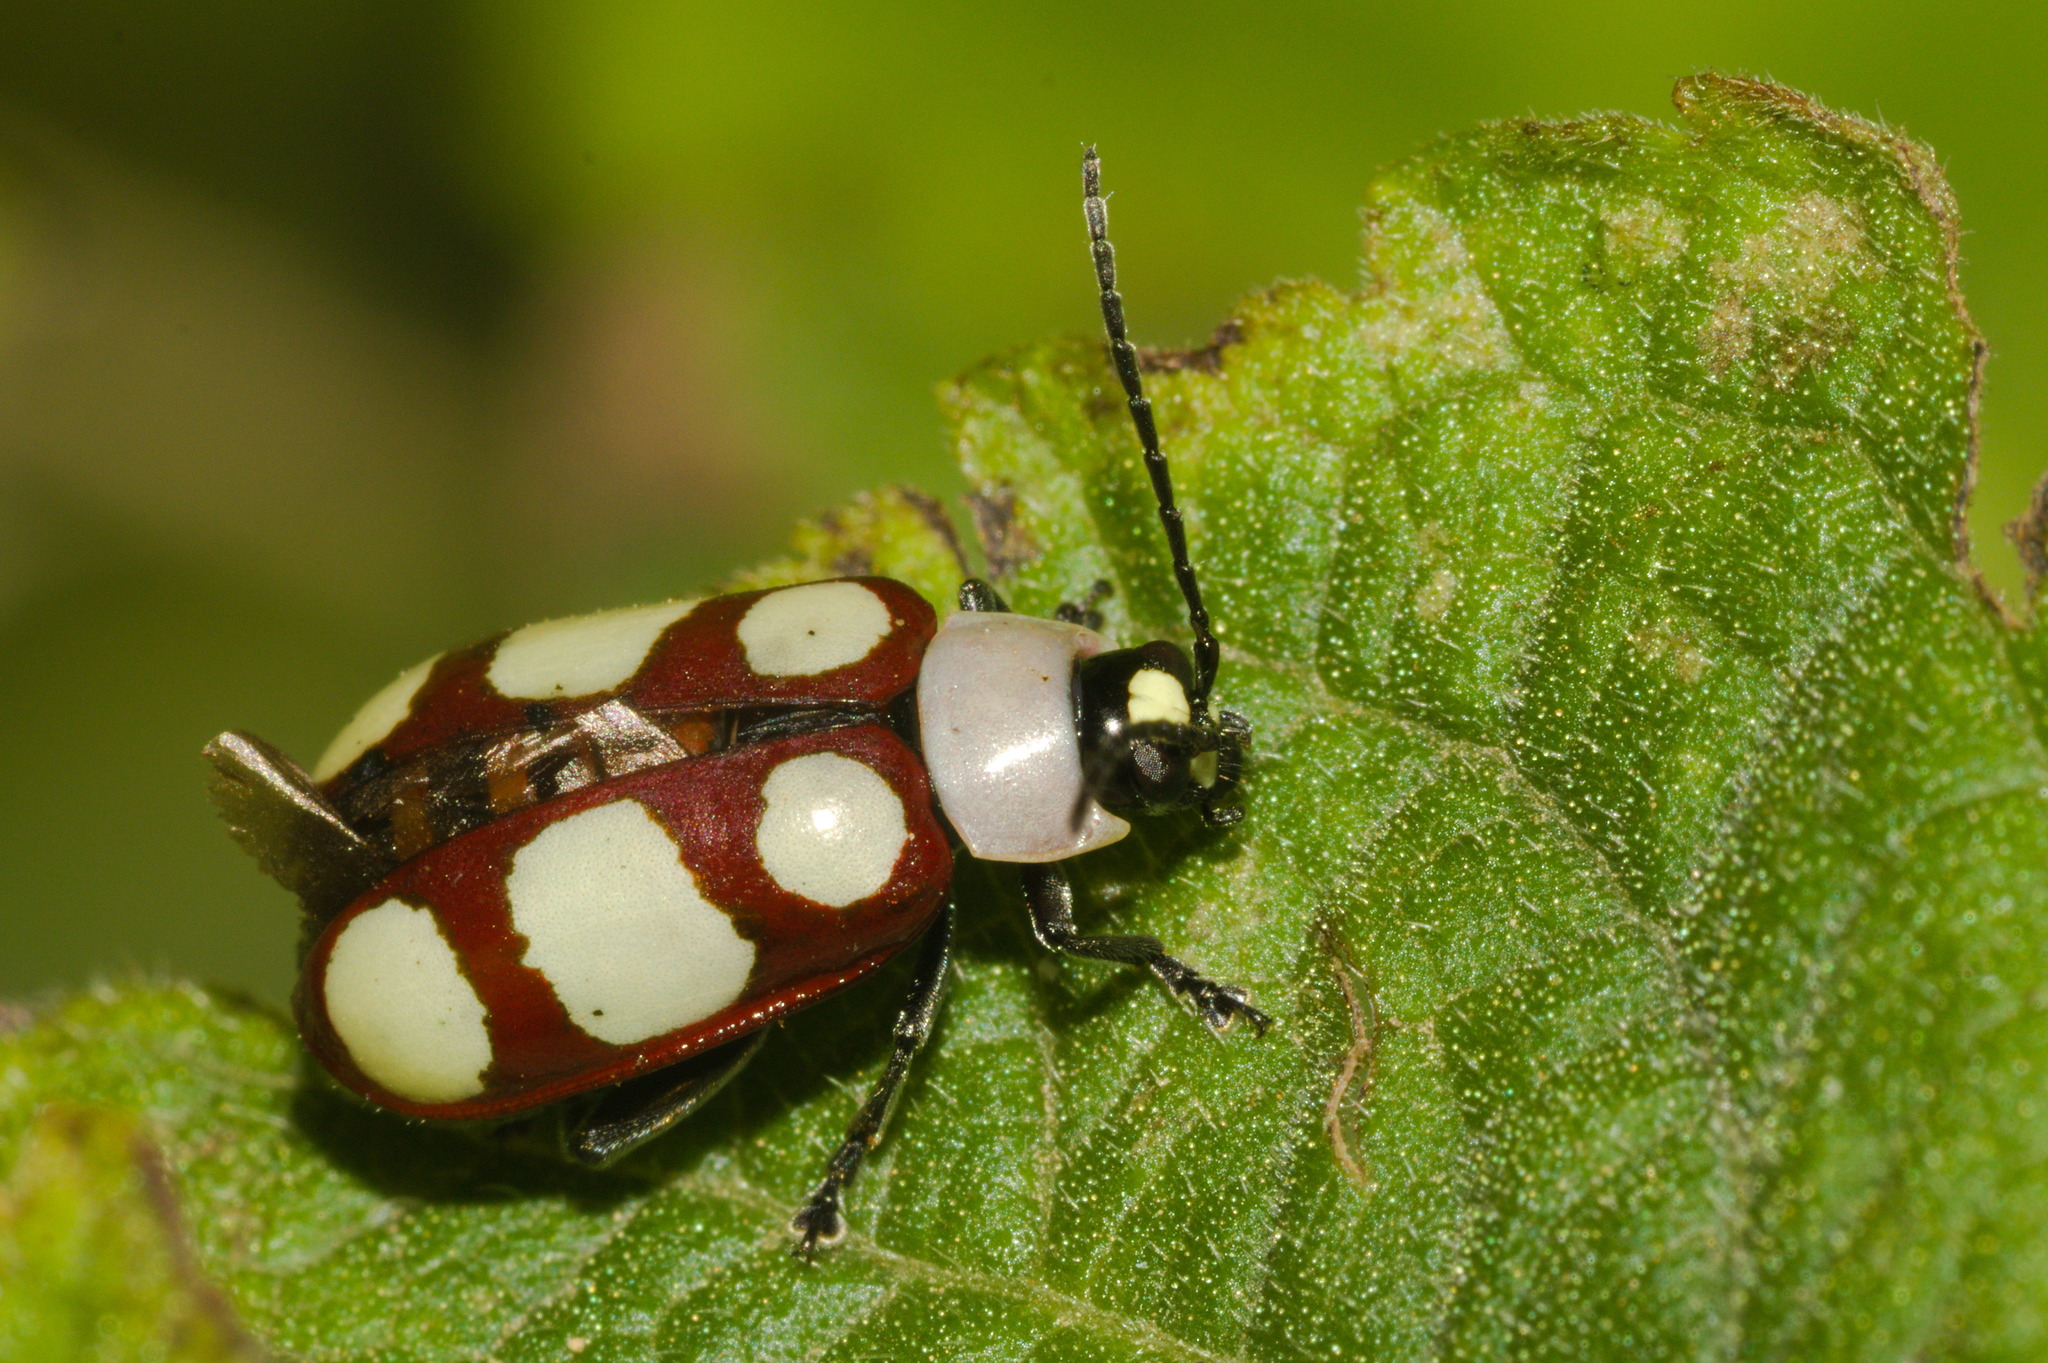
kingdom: Animalia
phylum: Arthropoda
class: Insecta
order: Coleoptera
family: Chrysomelidae
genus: Omophoita
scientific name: Omophoita
